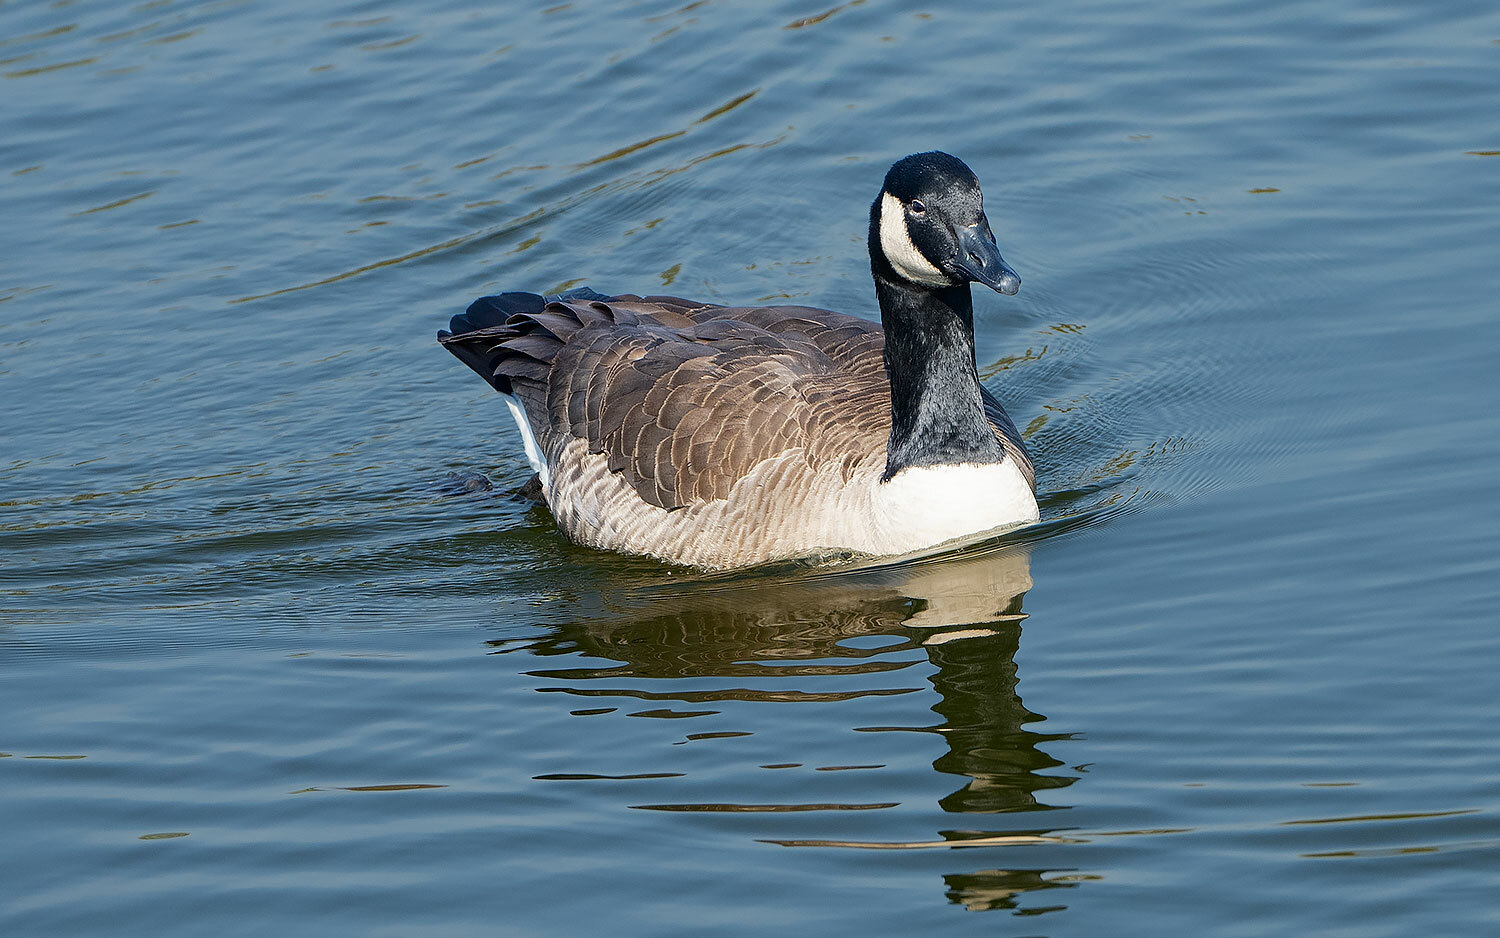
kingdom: Animalia
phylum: Chordata
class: Aves
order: Anseriformes
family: Anatidae
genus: Branta
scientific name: Branta canadensis
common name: Canada goose
